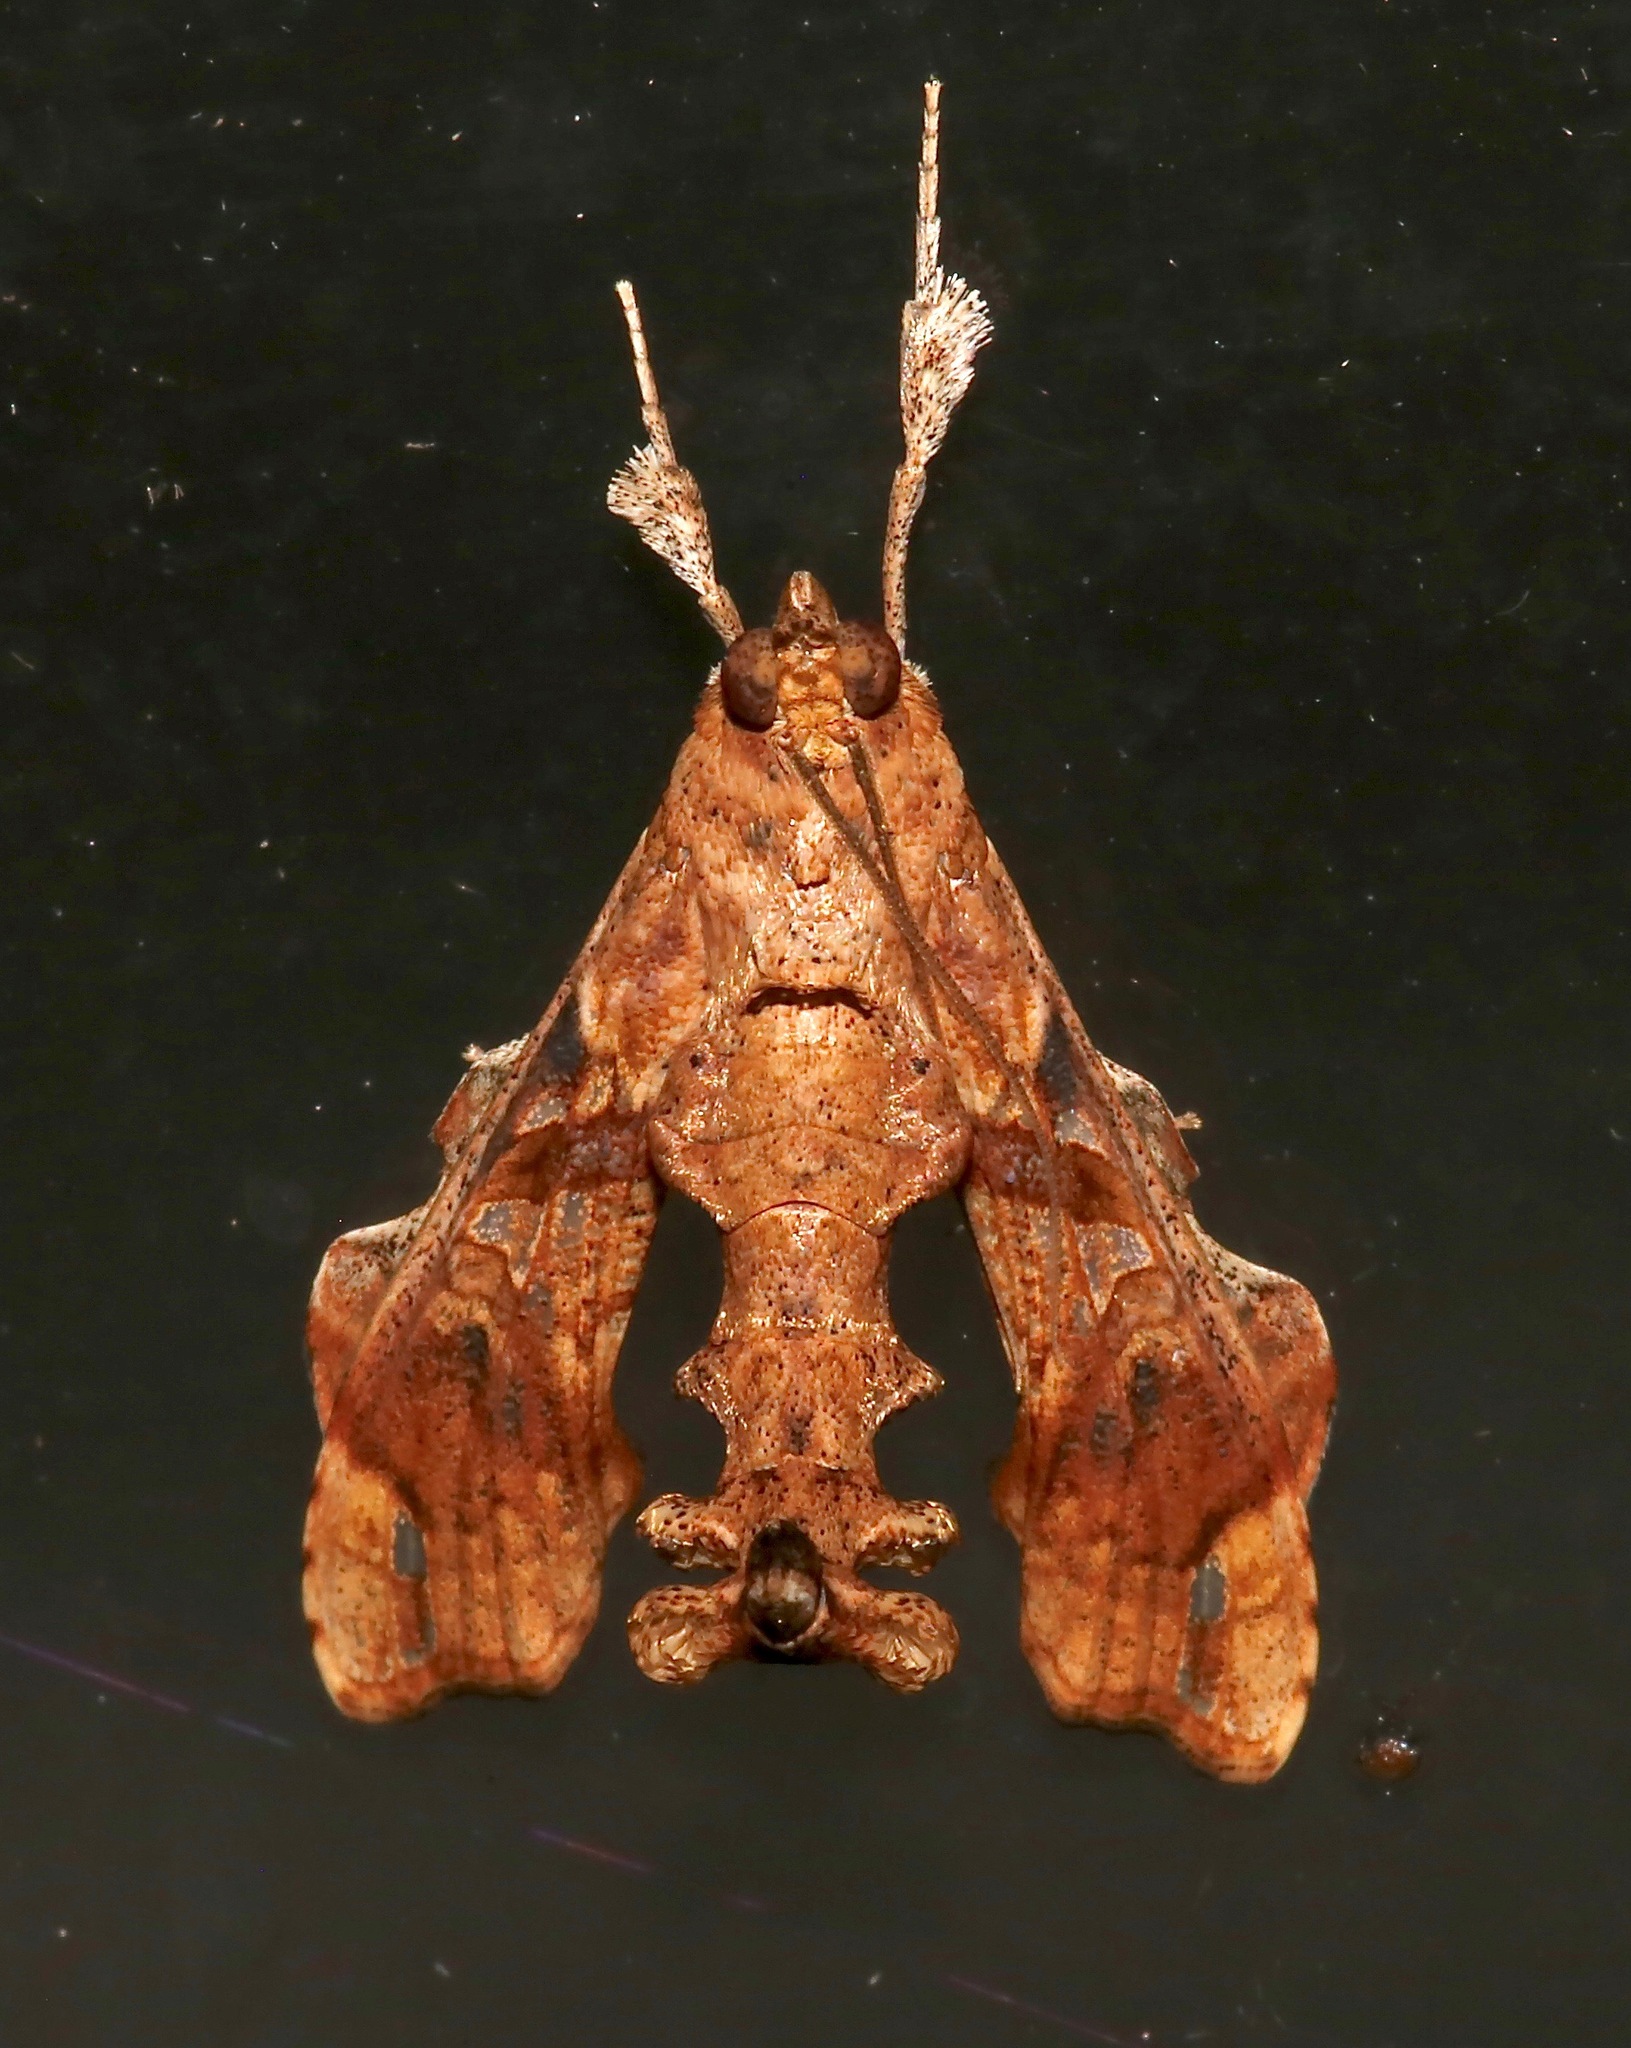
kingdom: Animalia
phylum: Arthropoda
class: Insecta
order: Lepidoptera
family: Crambidae
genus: Terastia
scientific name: Terastia meticulosalis
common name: Moth
